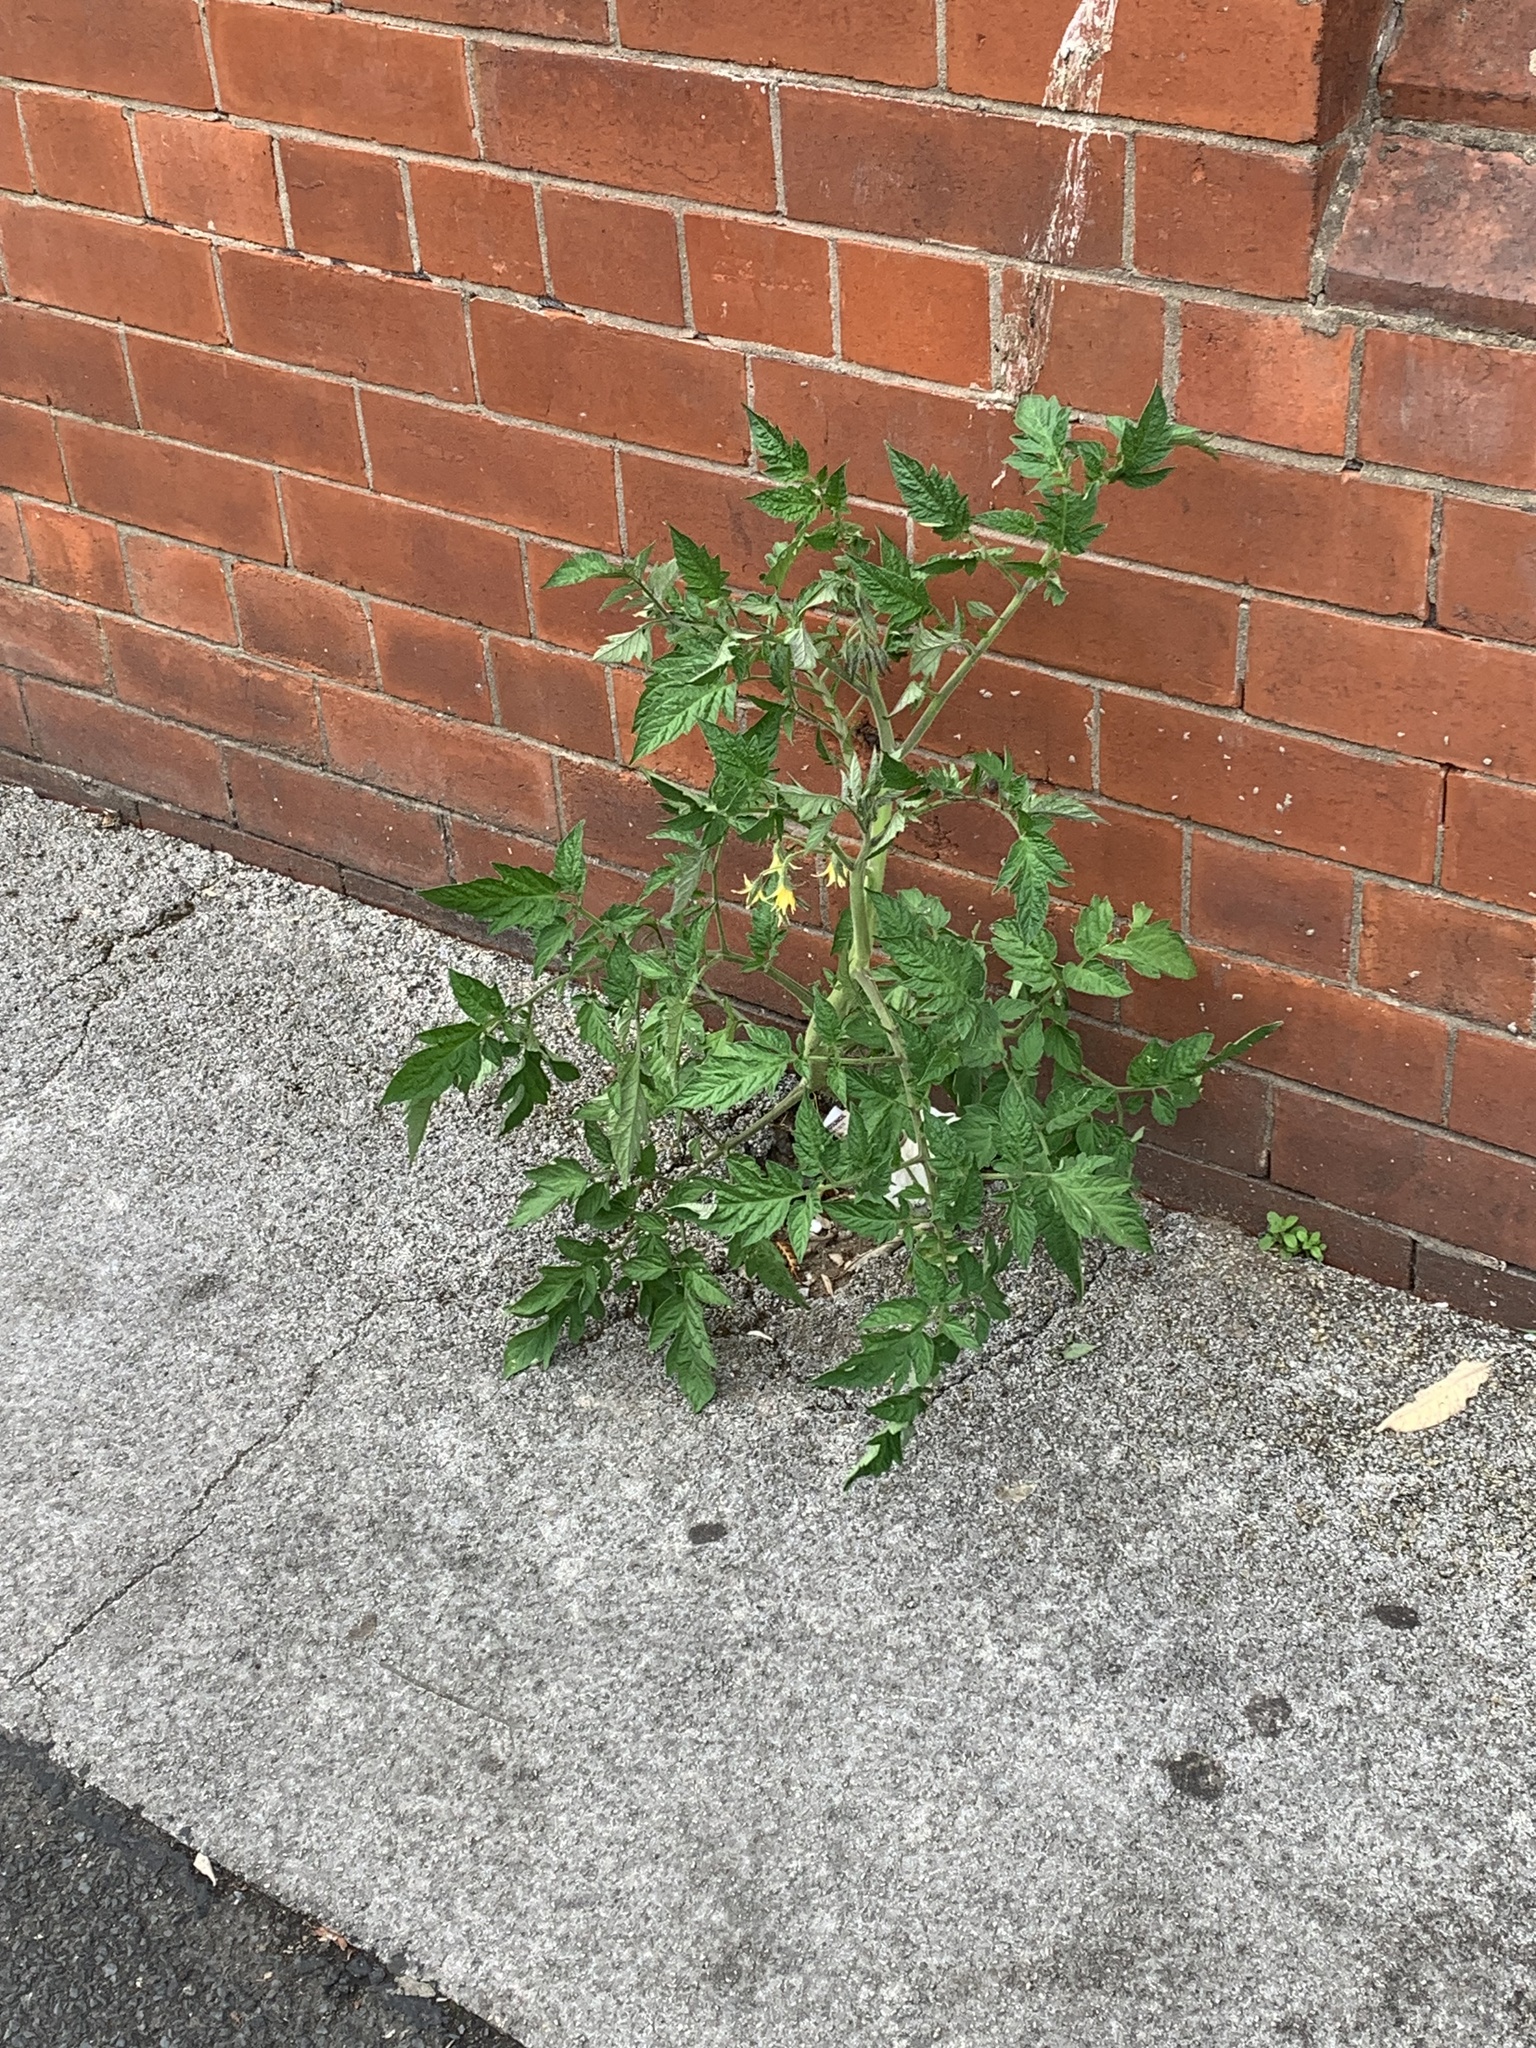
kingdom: Plantae
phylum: Tracheophyta
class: Magnoliopsida
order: Solanales
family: Solanaceae
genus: Solanum
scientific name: Solanum lycopersicum
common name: Garden tomato
